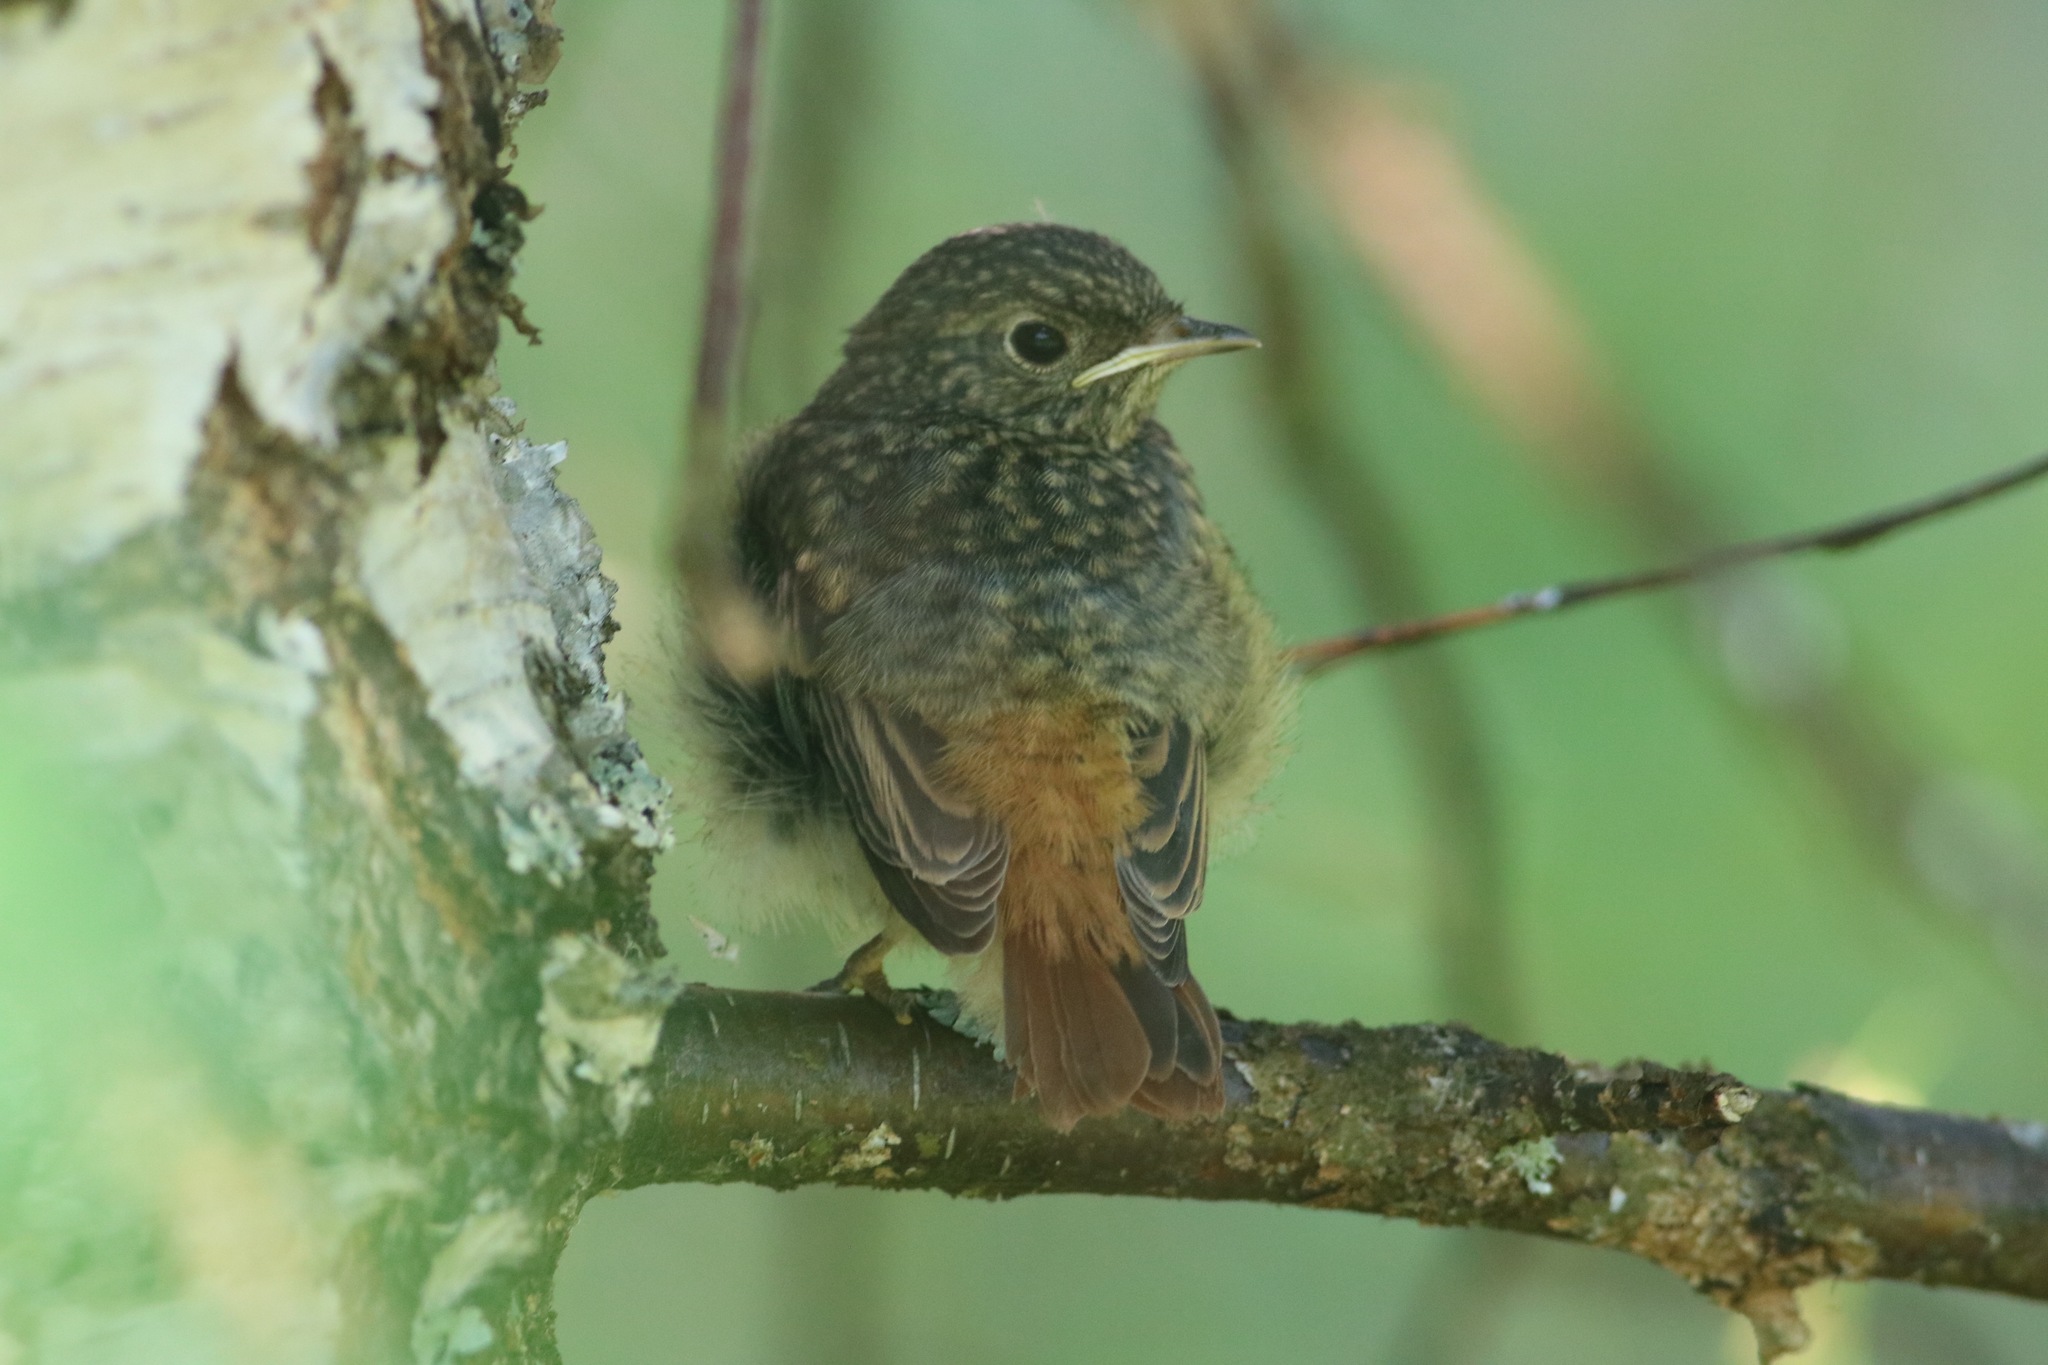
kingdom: Animalia
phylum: Chordata
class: Aves
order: Passeriformes
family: Muscicapidae
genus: Phoenicurus
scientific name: Phoenicurus phoenicurus
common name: Common redstart
